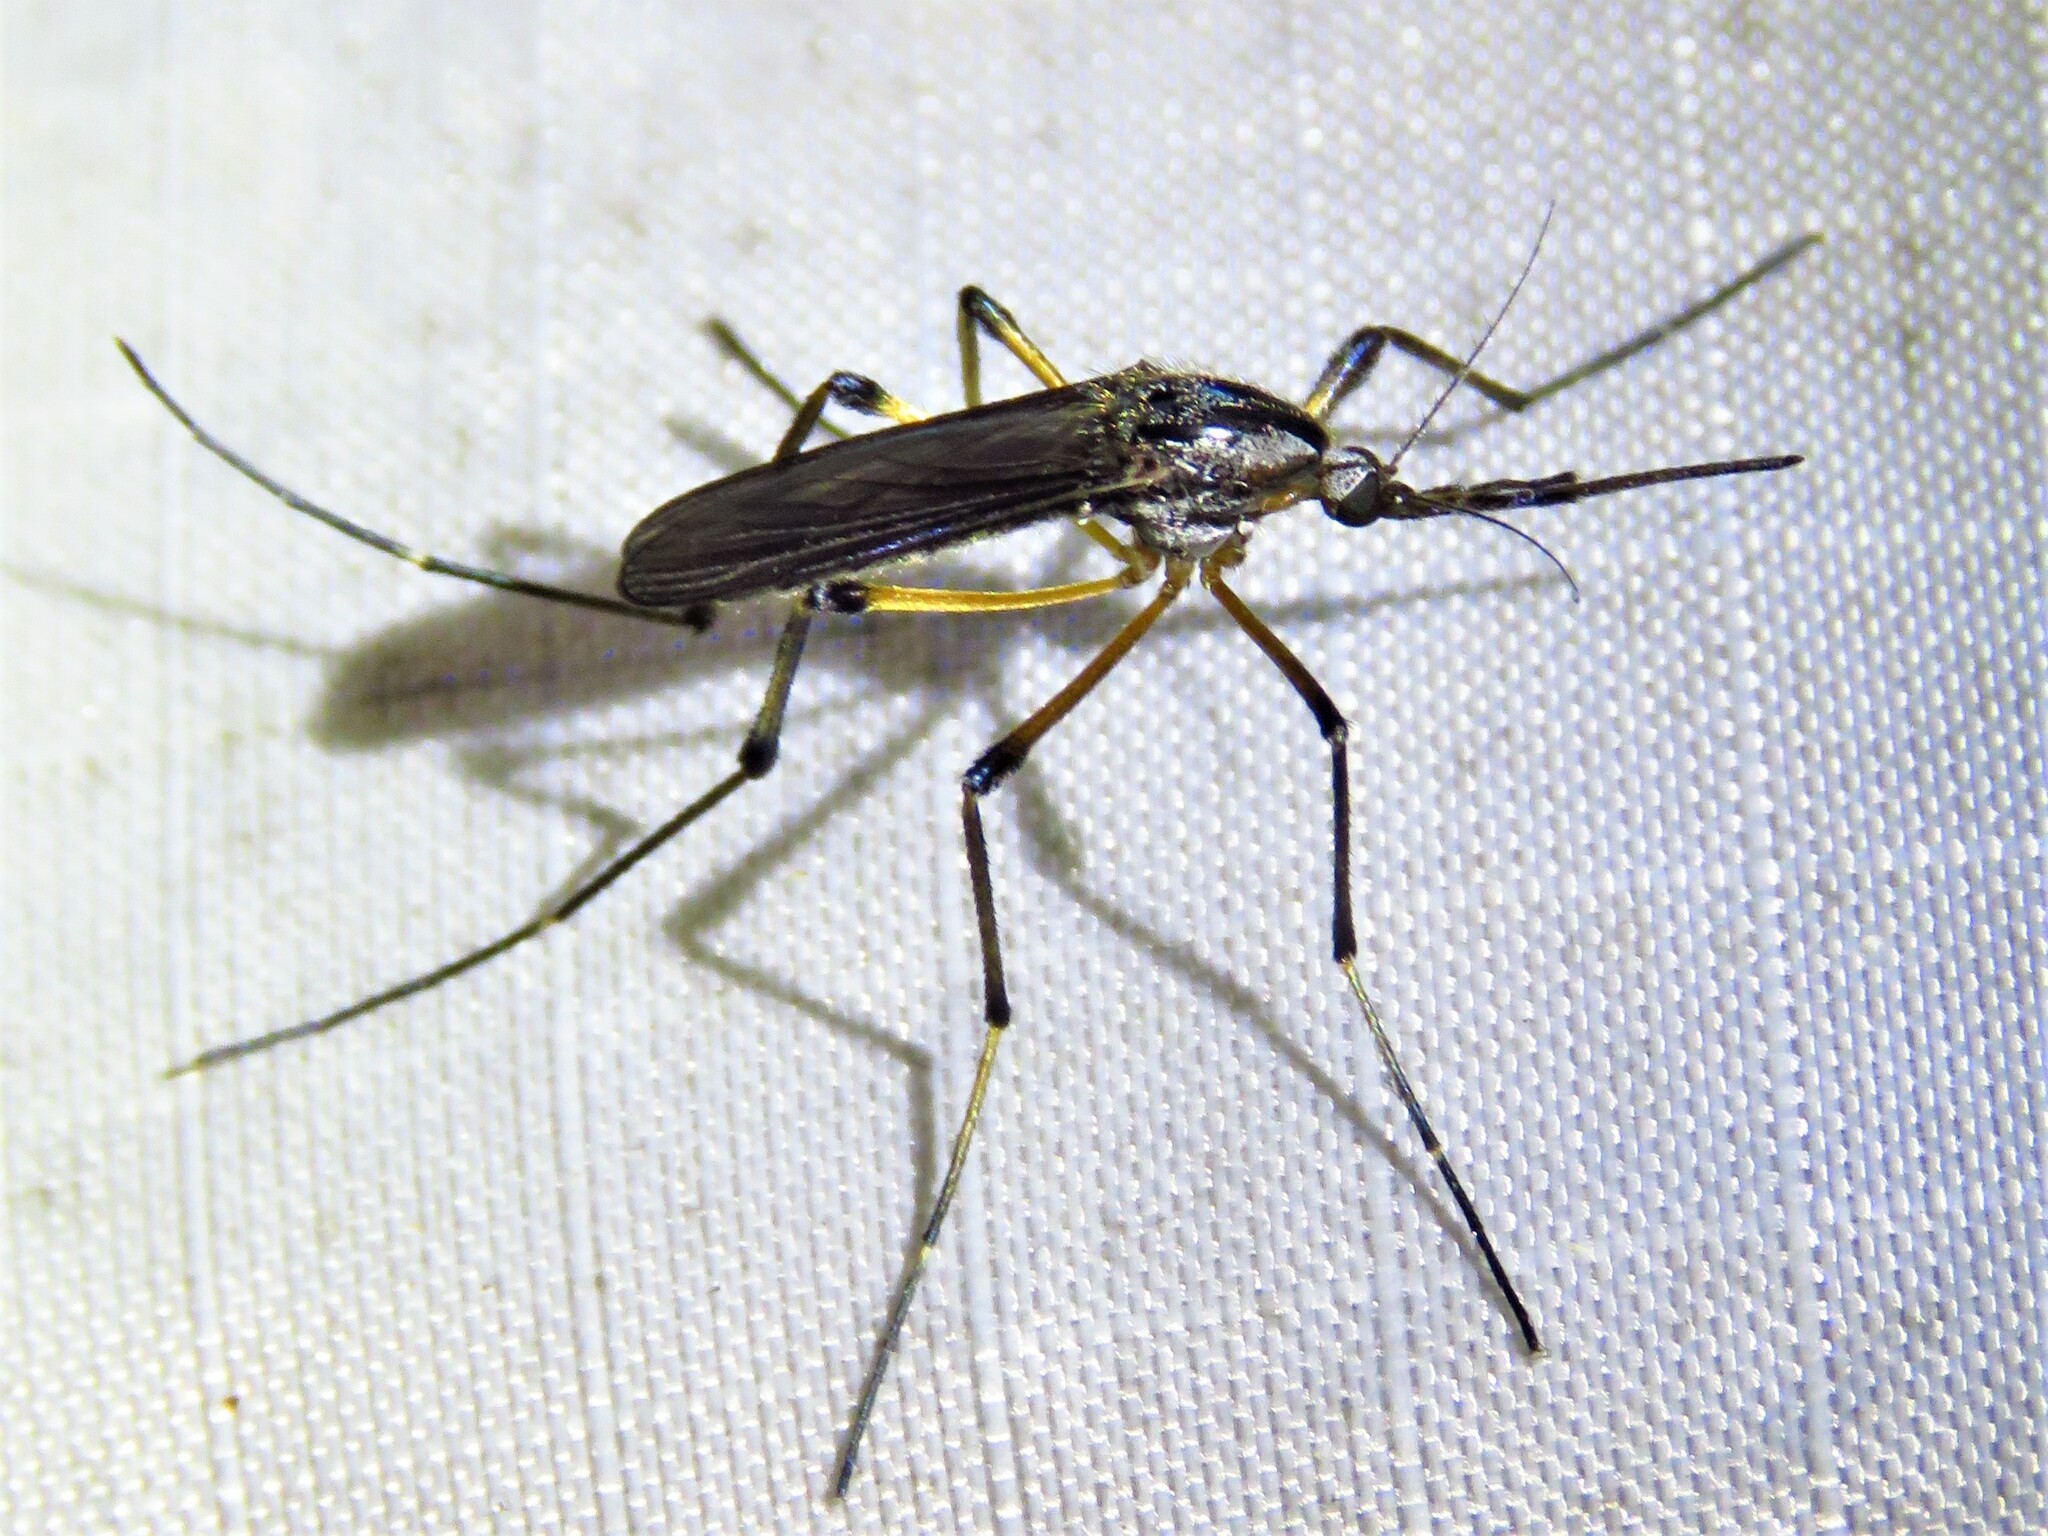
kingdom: Animalia
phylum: Arthropoda
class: Insecta
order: Diptera
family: Culicidae
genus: Psorophora
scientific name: Psorophora howardii
